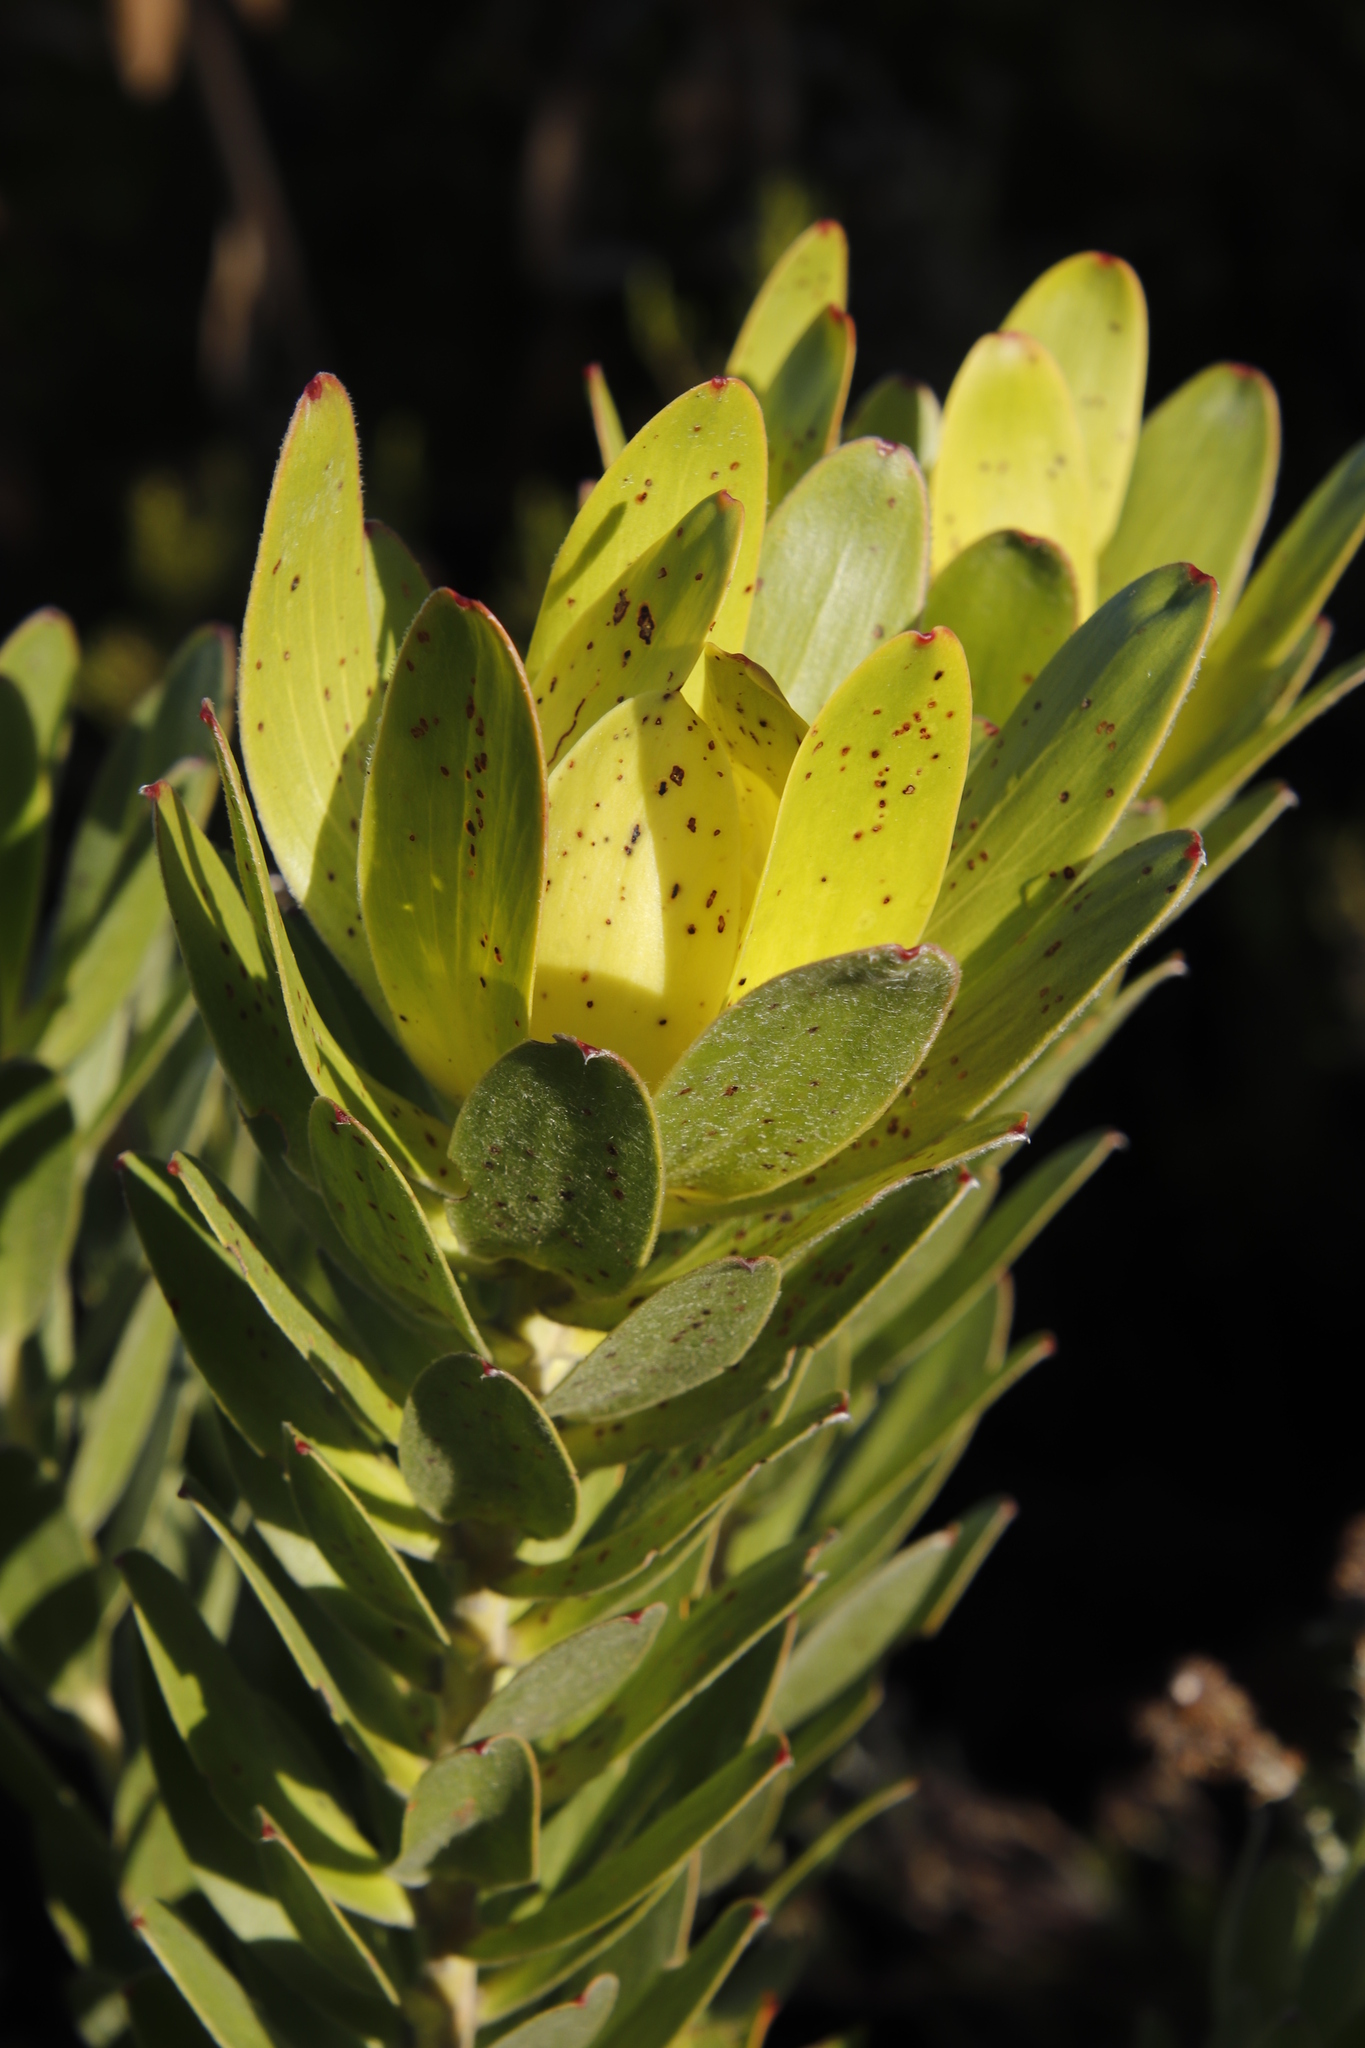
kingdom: Plantae
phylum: Tracheophyta
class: Magnoliopsida
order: Proteales
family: Proteaceae
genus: Leucadendron
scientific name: Leucadendron laureolum
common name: Golden sunshinebush
